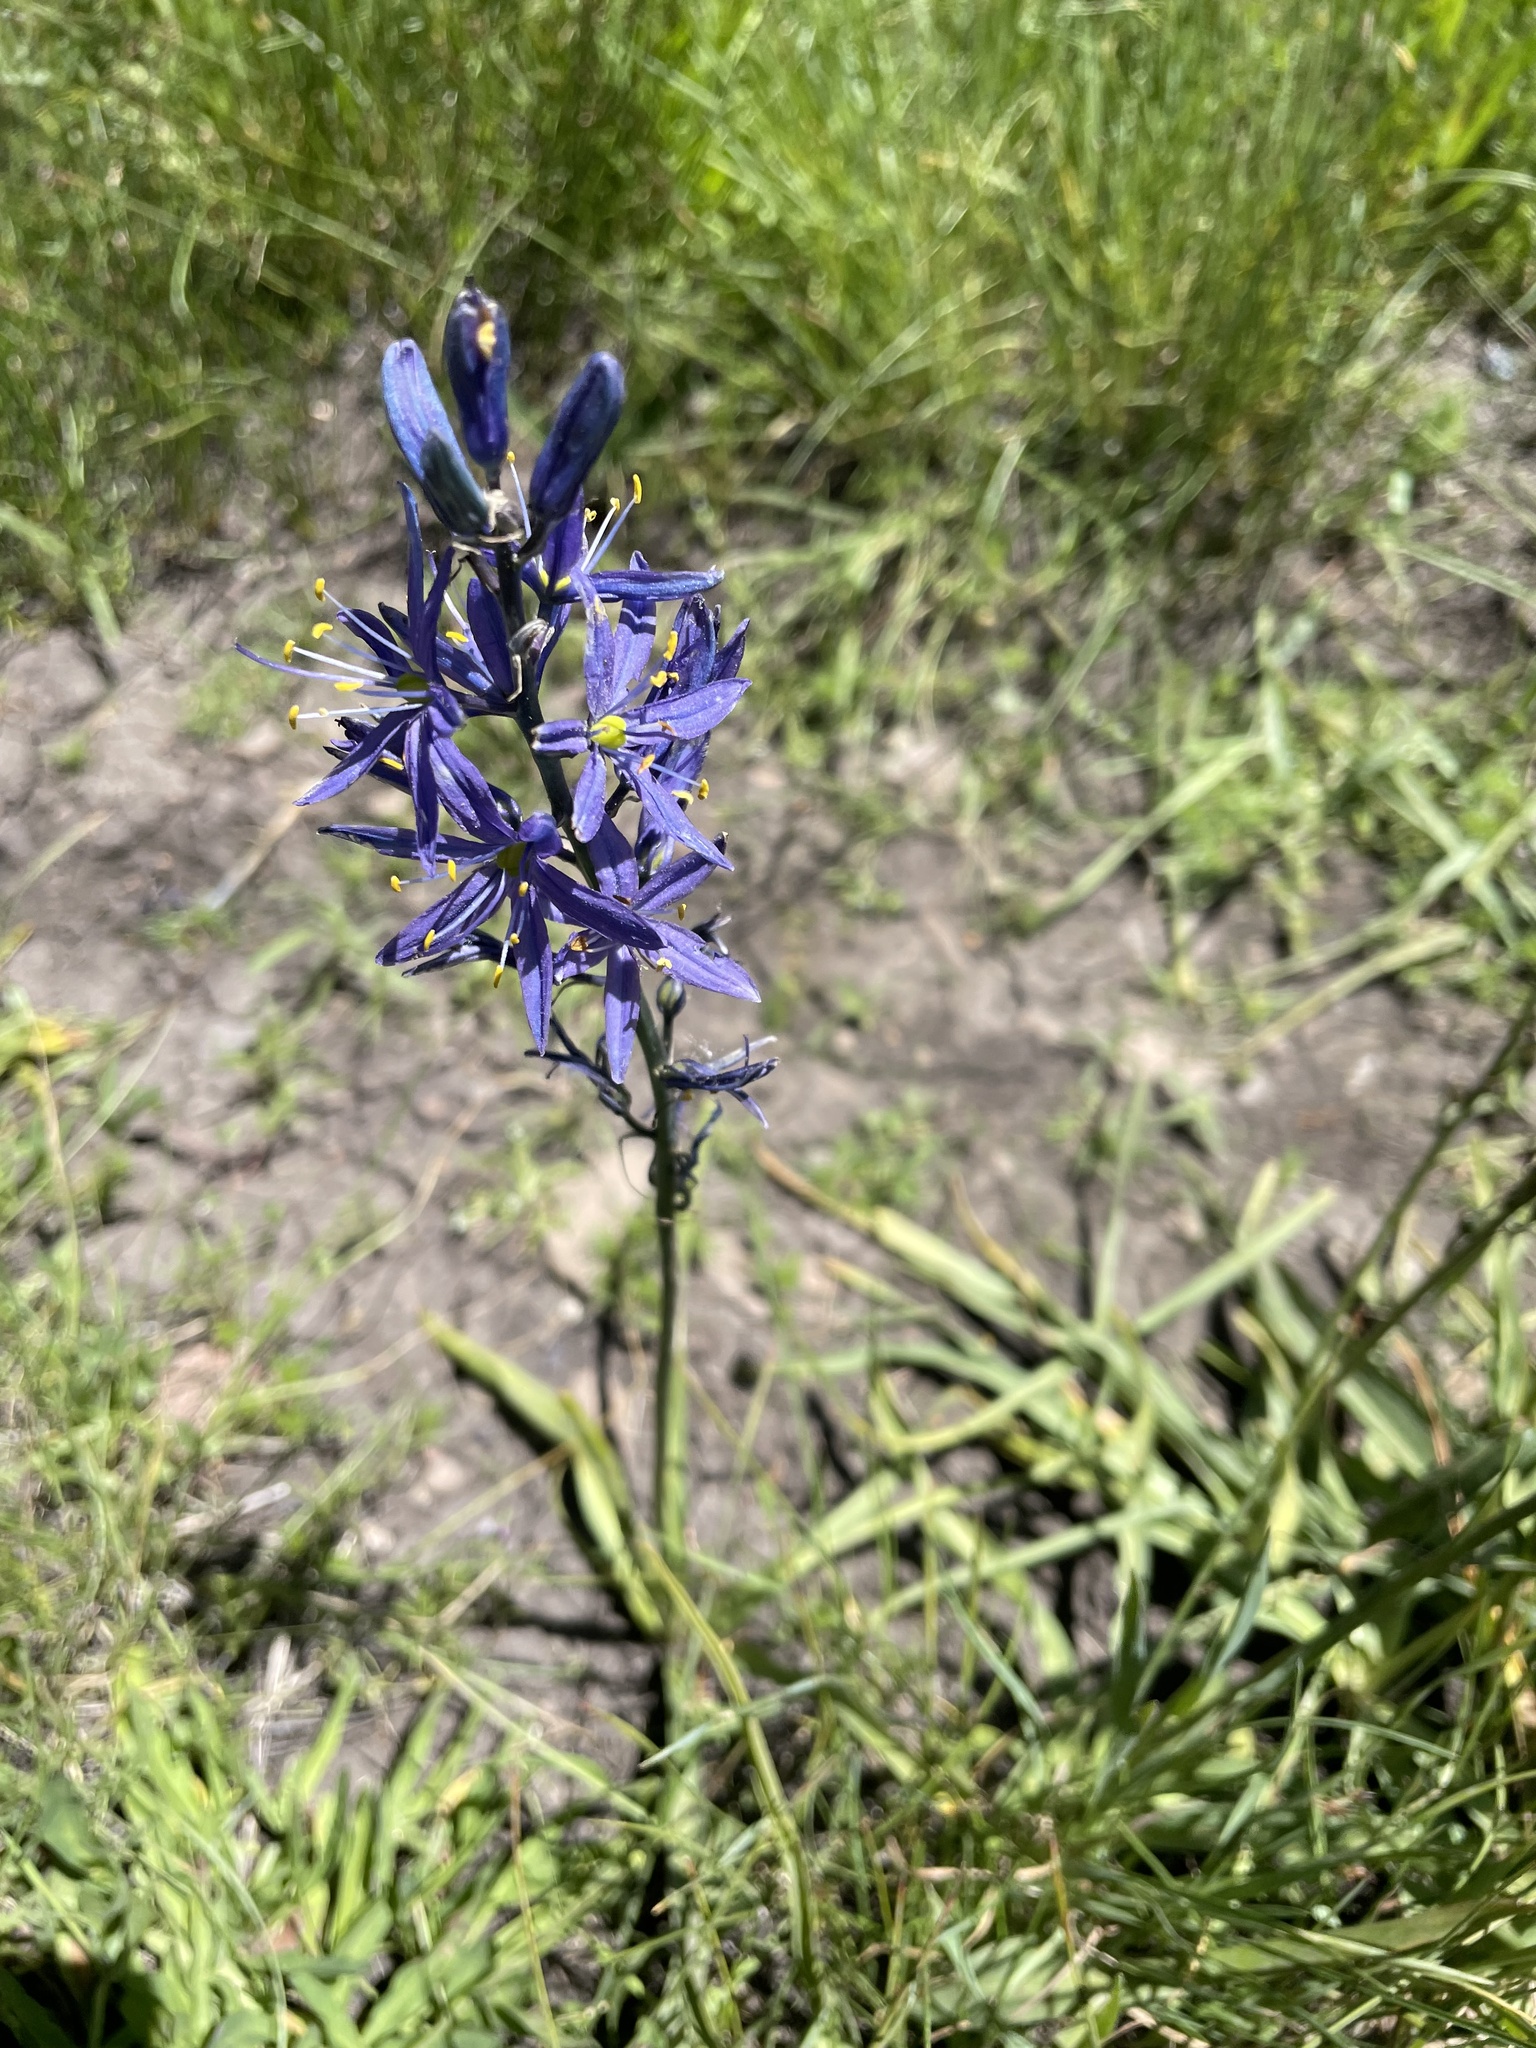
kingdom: Plantae
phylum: Tracheophyta
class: Liliopsida
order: Asparagales
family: Asparagaceae
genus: Camassia
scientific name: Camassia quamash
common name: Common camas
